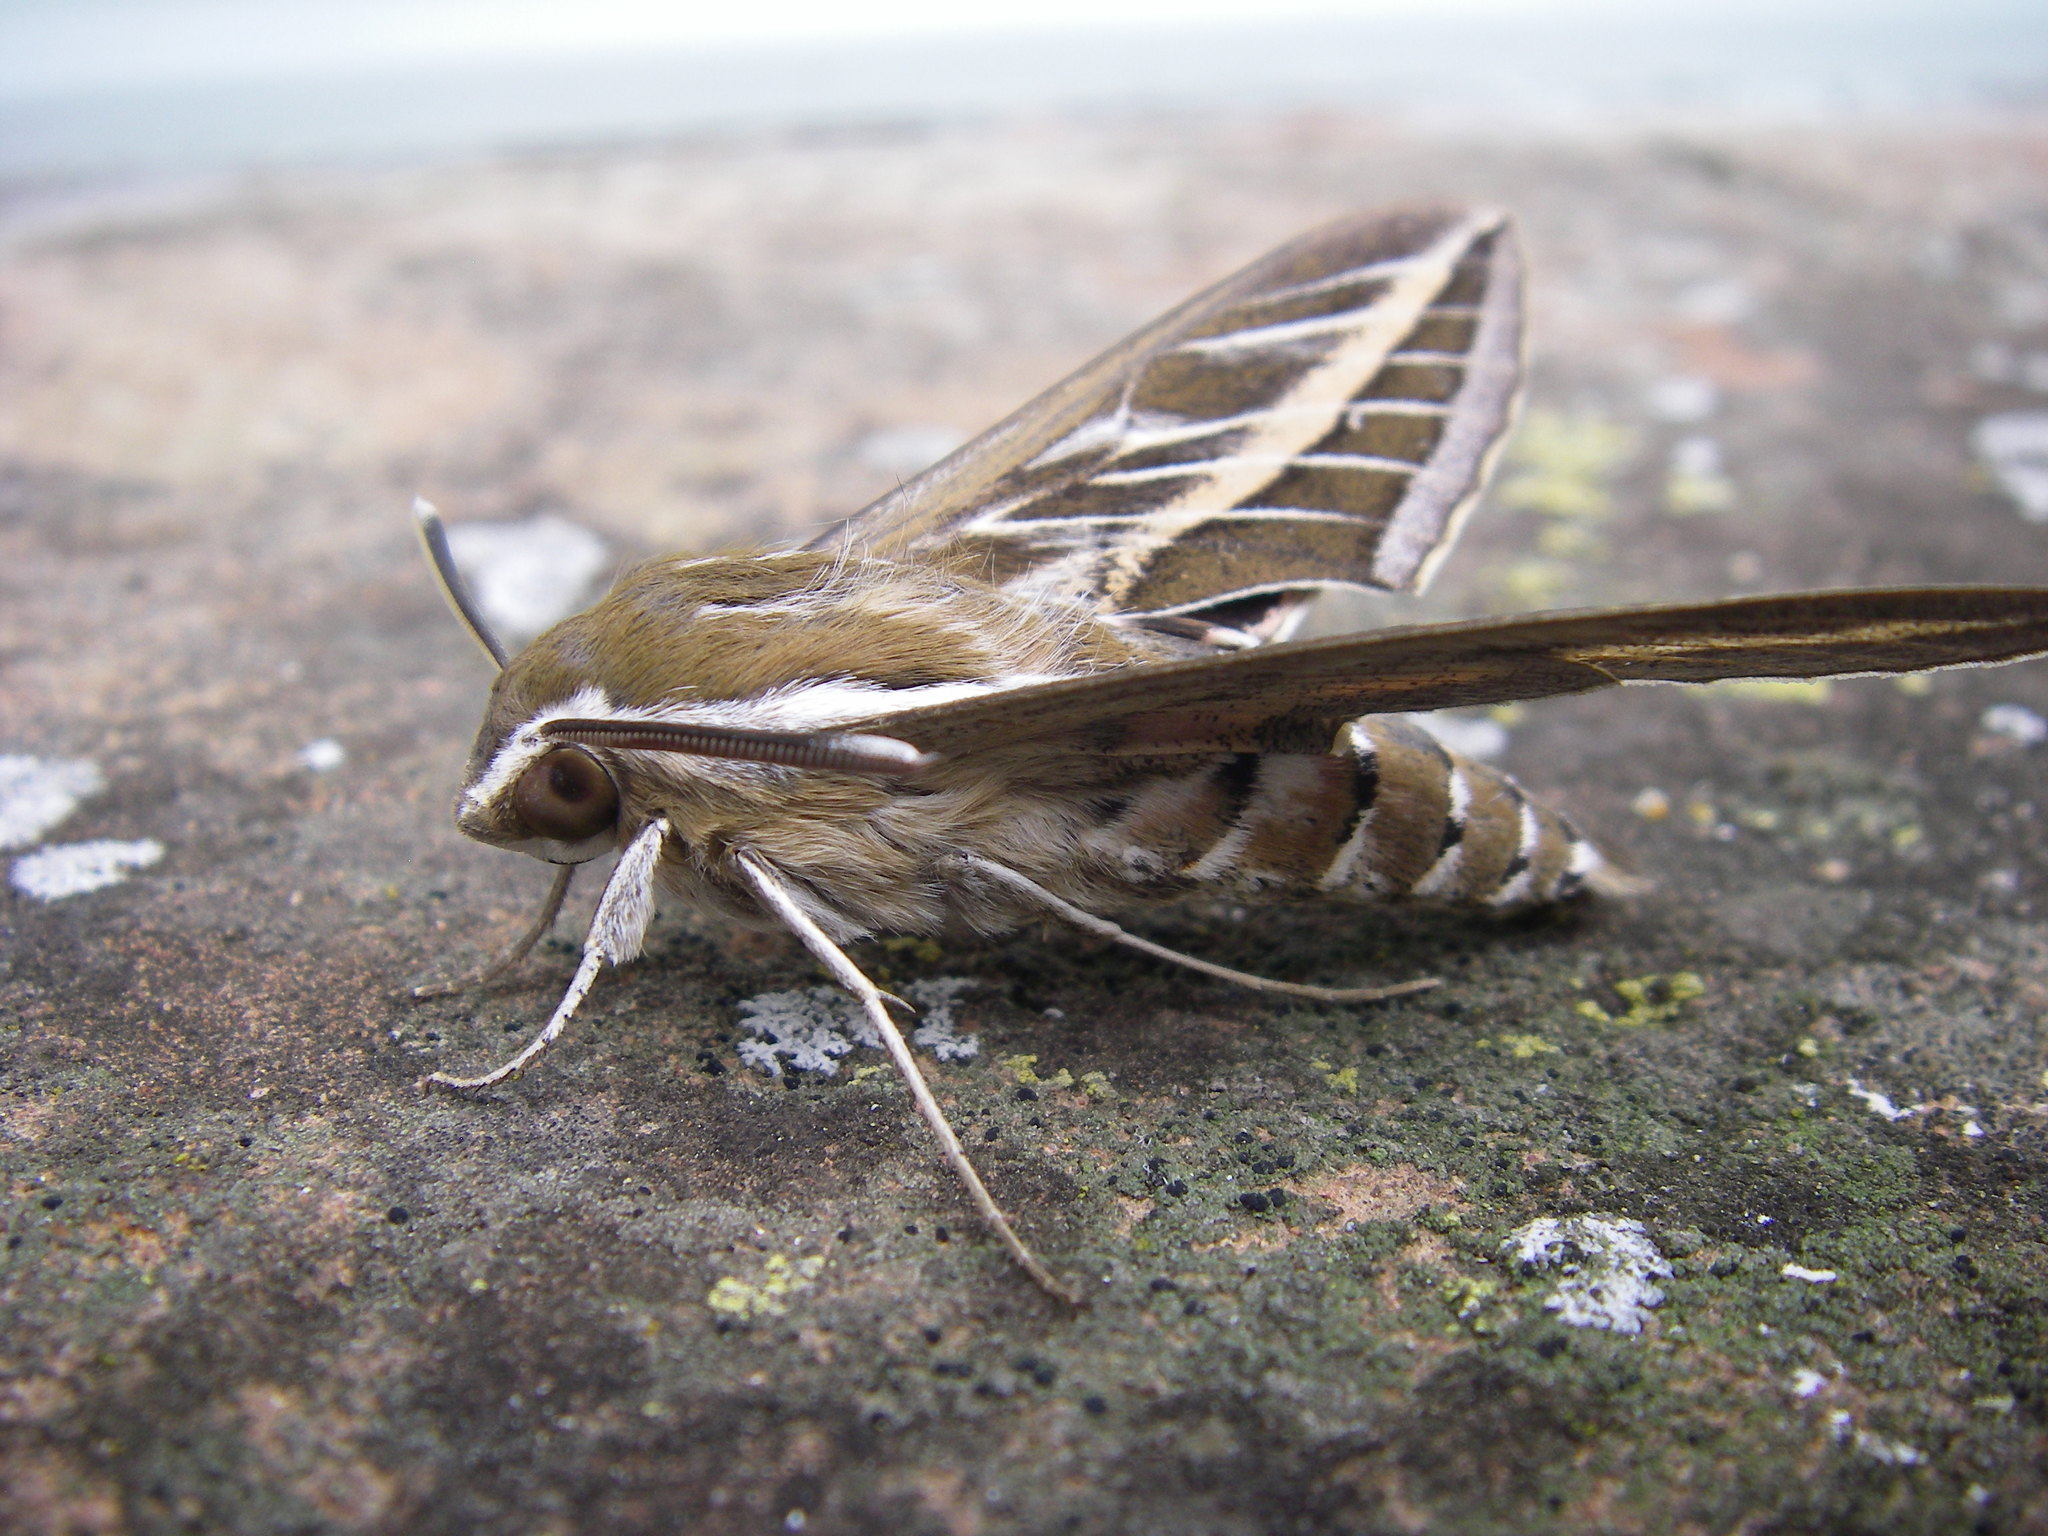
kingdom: Animalia
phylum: Arthropoda
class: Insecta
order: Lepidoptera
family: Sphingidae
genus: Hyles
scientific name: Hyles livornica
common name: Striped hawk-moth
